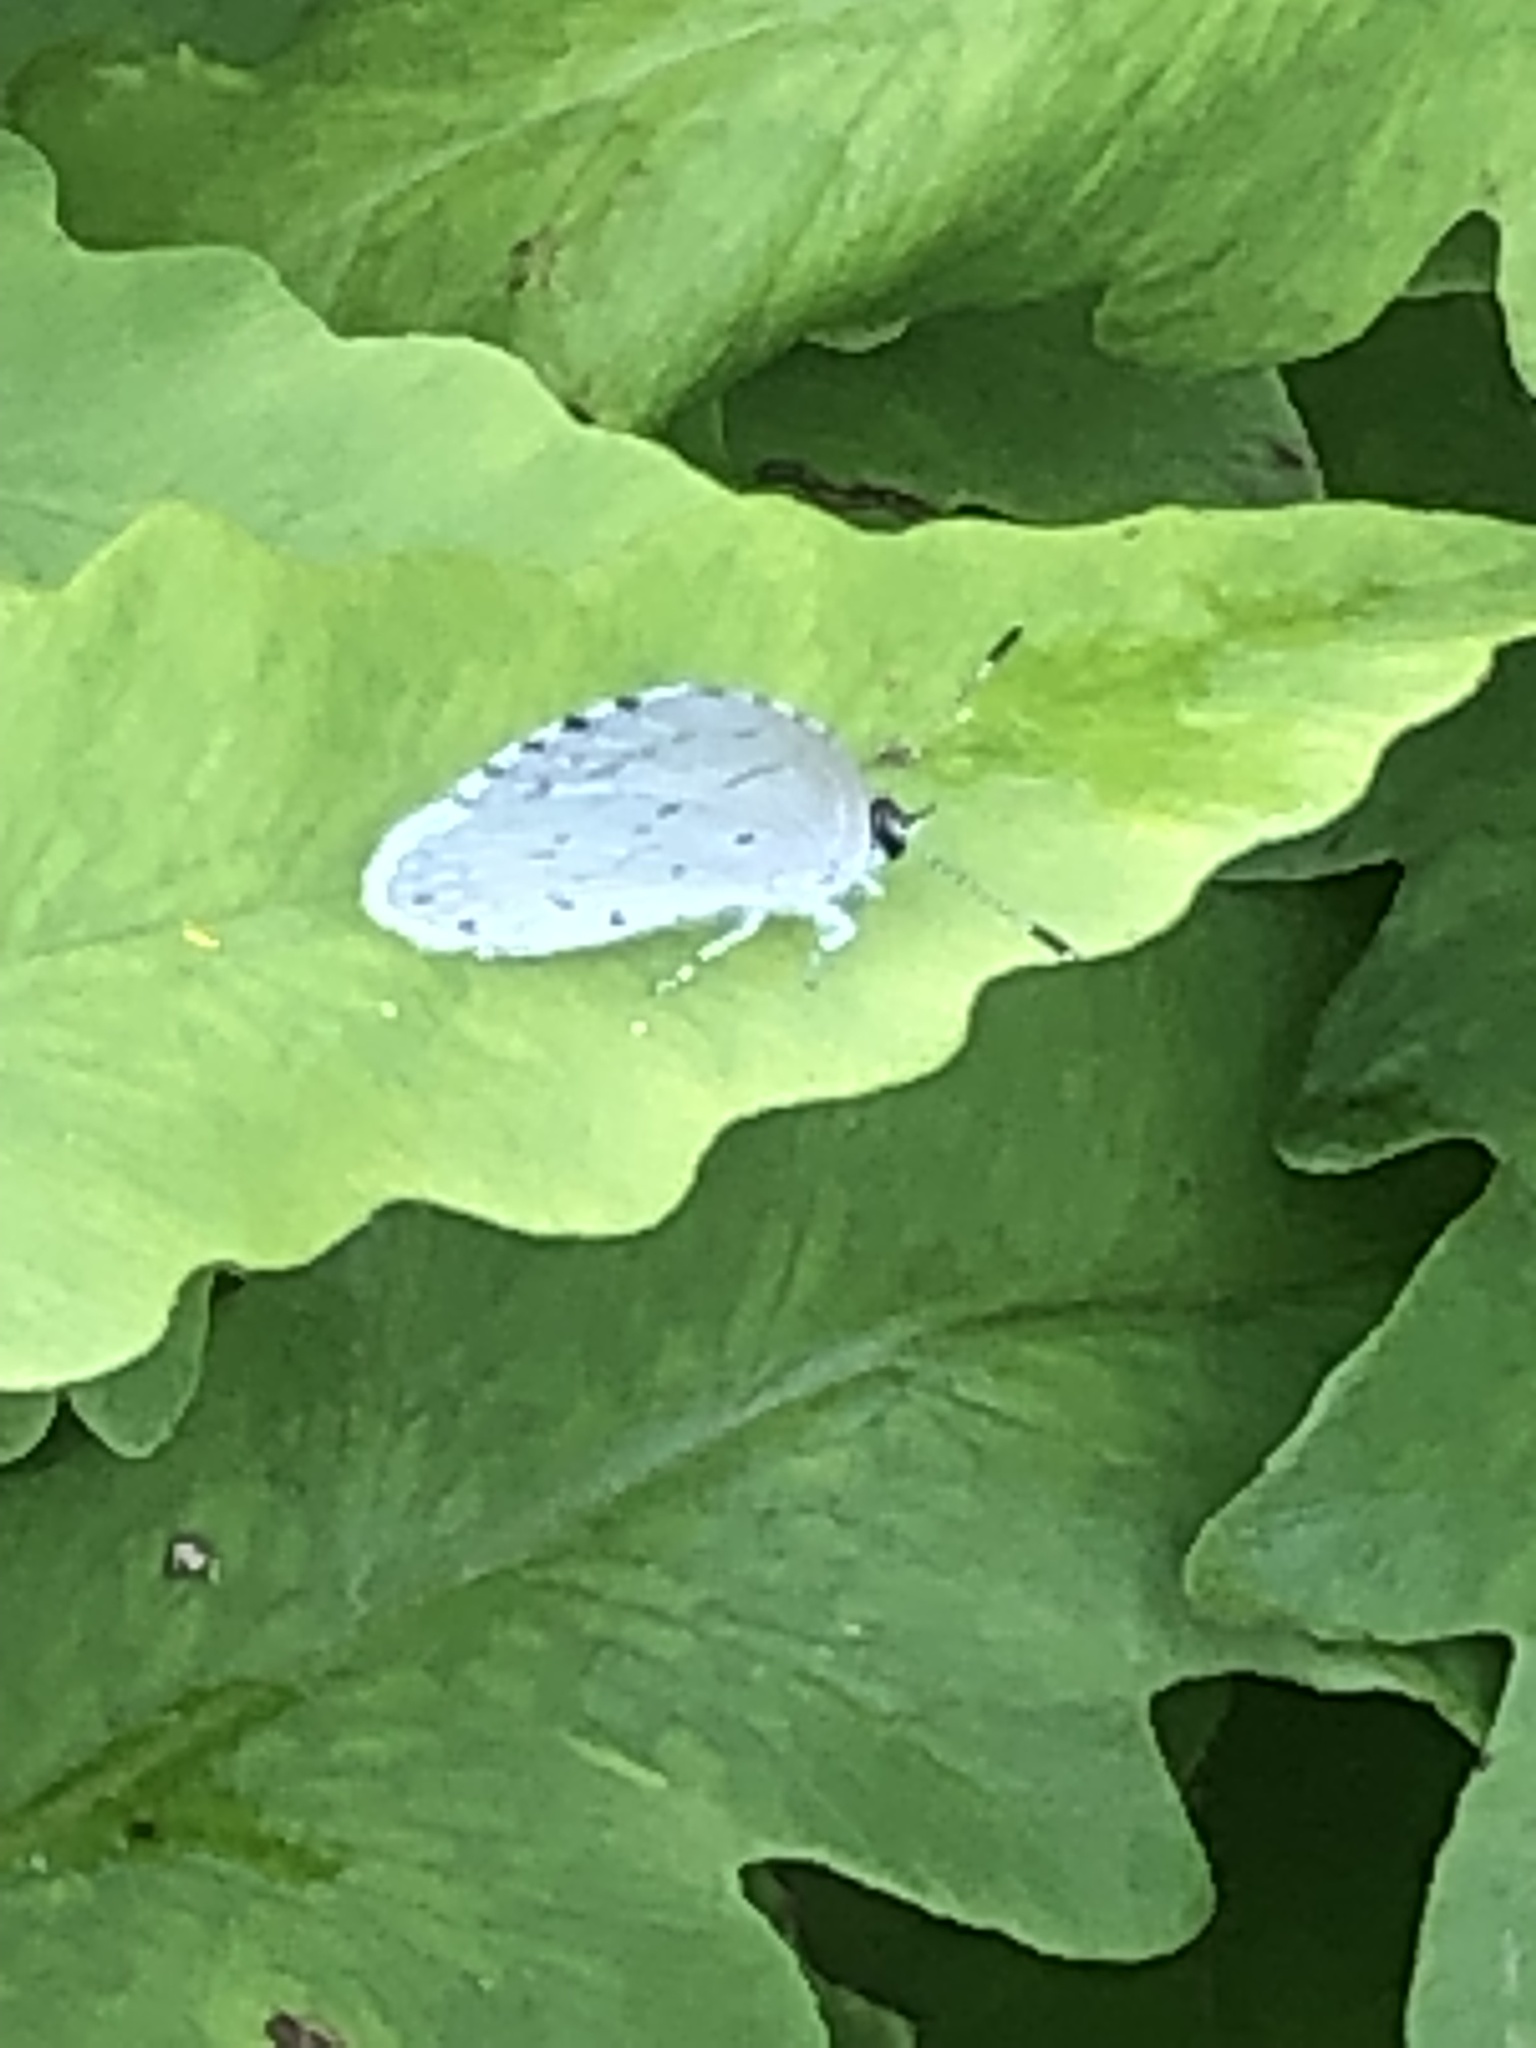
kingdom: Animalia
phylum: Arthropoda
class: Insecta
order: Lepidoptera
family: Lycaenidae
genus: Cyaniris
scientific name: Cyaniris neglecta
